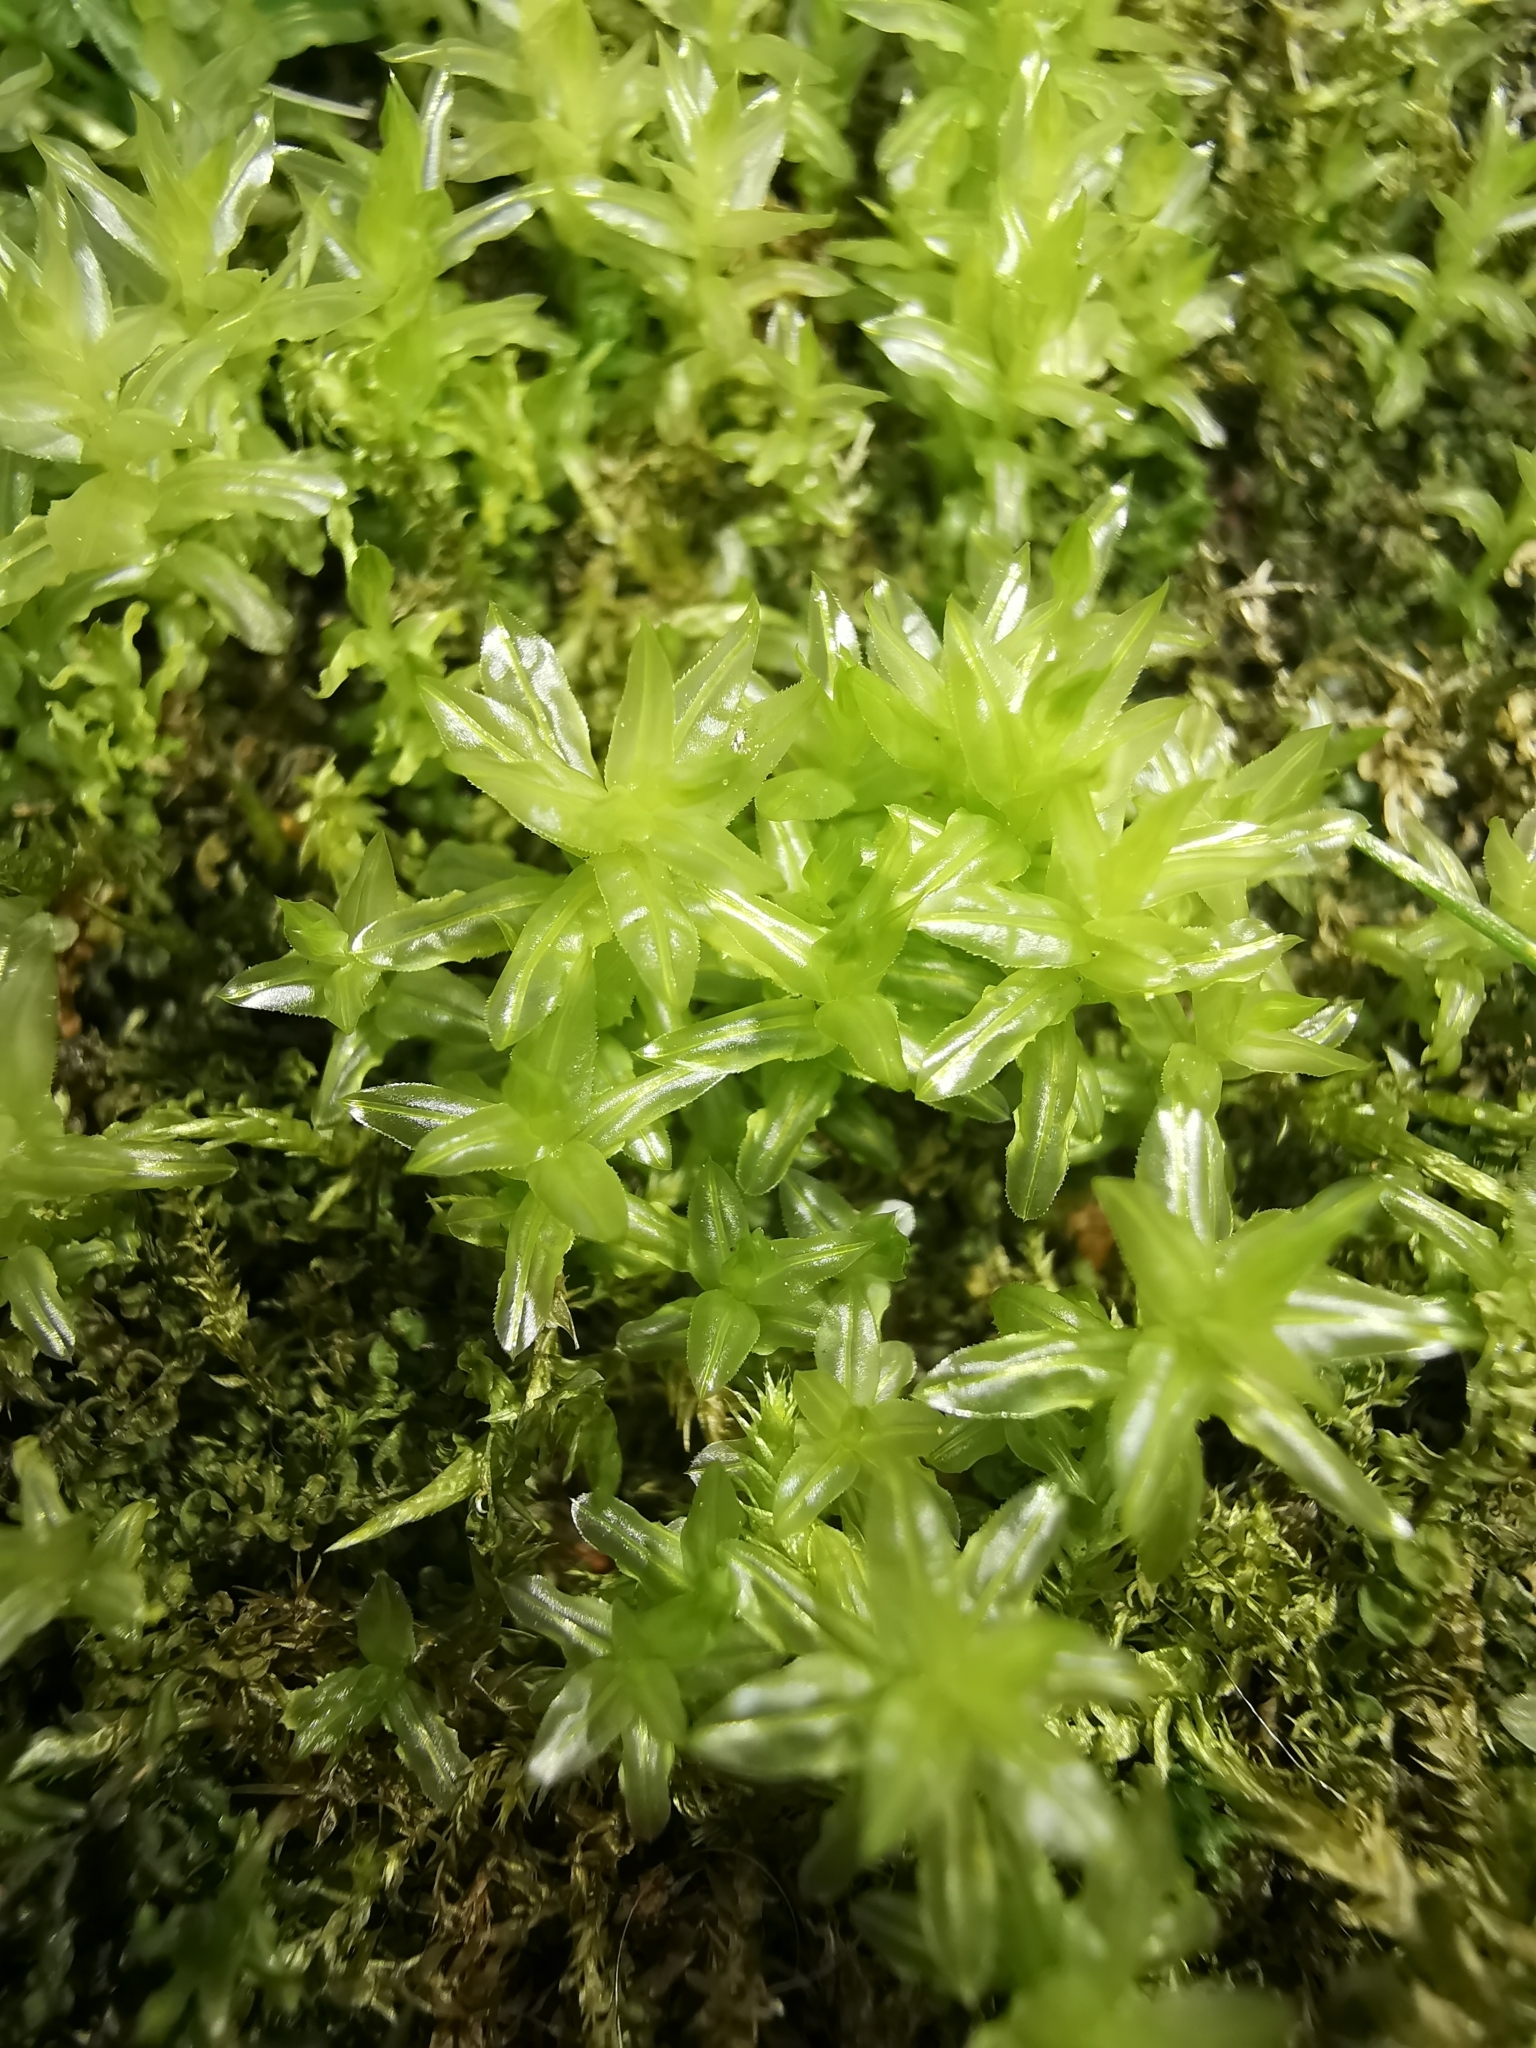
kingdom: Plantae
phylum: Bryophyta
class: Bryopsida
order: Bryales
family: Mniaceae
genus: Plagiomnium
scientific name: Plagiomnium undulatum
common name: Hart's-tongue thyme-moss
